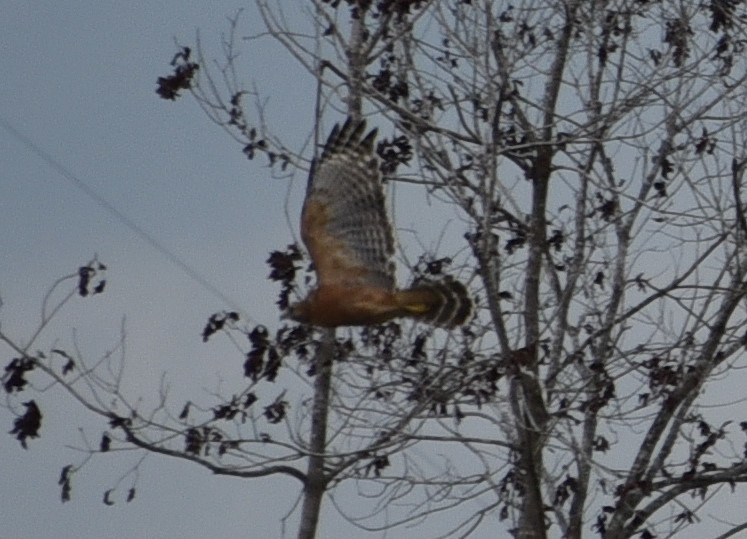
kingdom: Animalia
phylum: Chordata
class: Aves
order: Accipitriformes
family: Accipitridae
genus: Buteo
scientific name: Buteo lineatus
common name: Red-shouldered hawk
